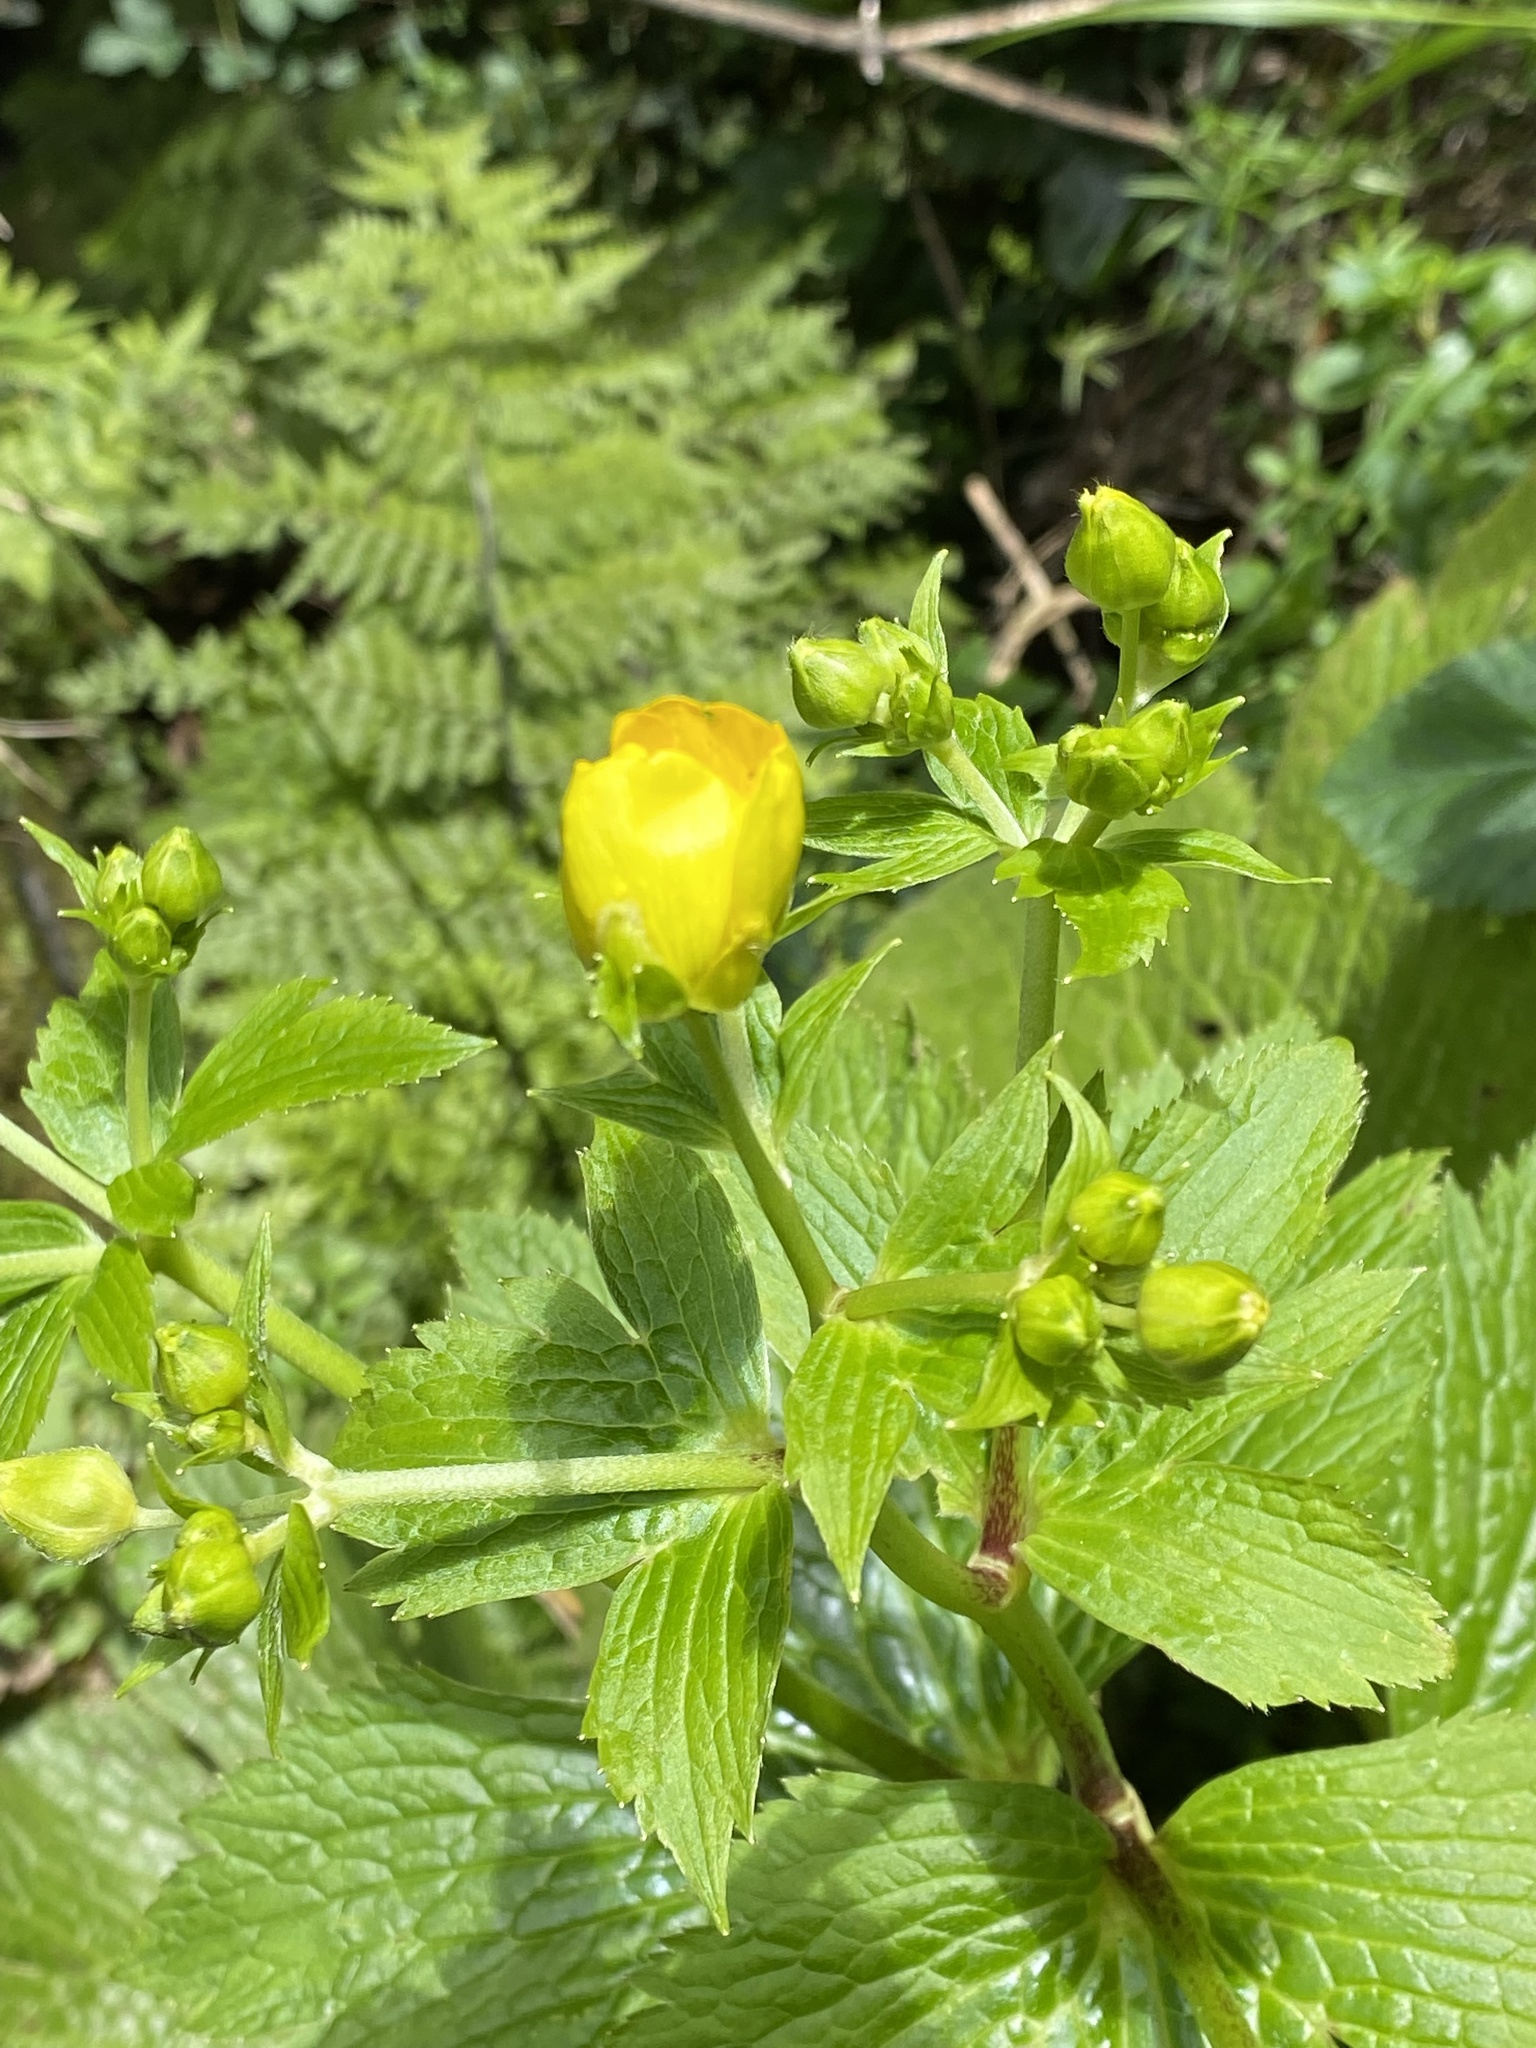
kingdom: Plantae
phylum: Tracheophyta
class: Magnoliopsida
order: Ranunculales
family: Ranunculaceae
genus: Ranunculus
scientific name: Ranunculus cortusifolius
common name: Azores buttercup
